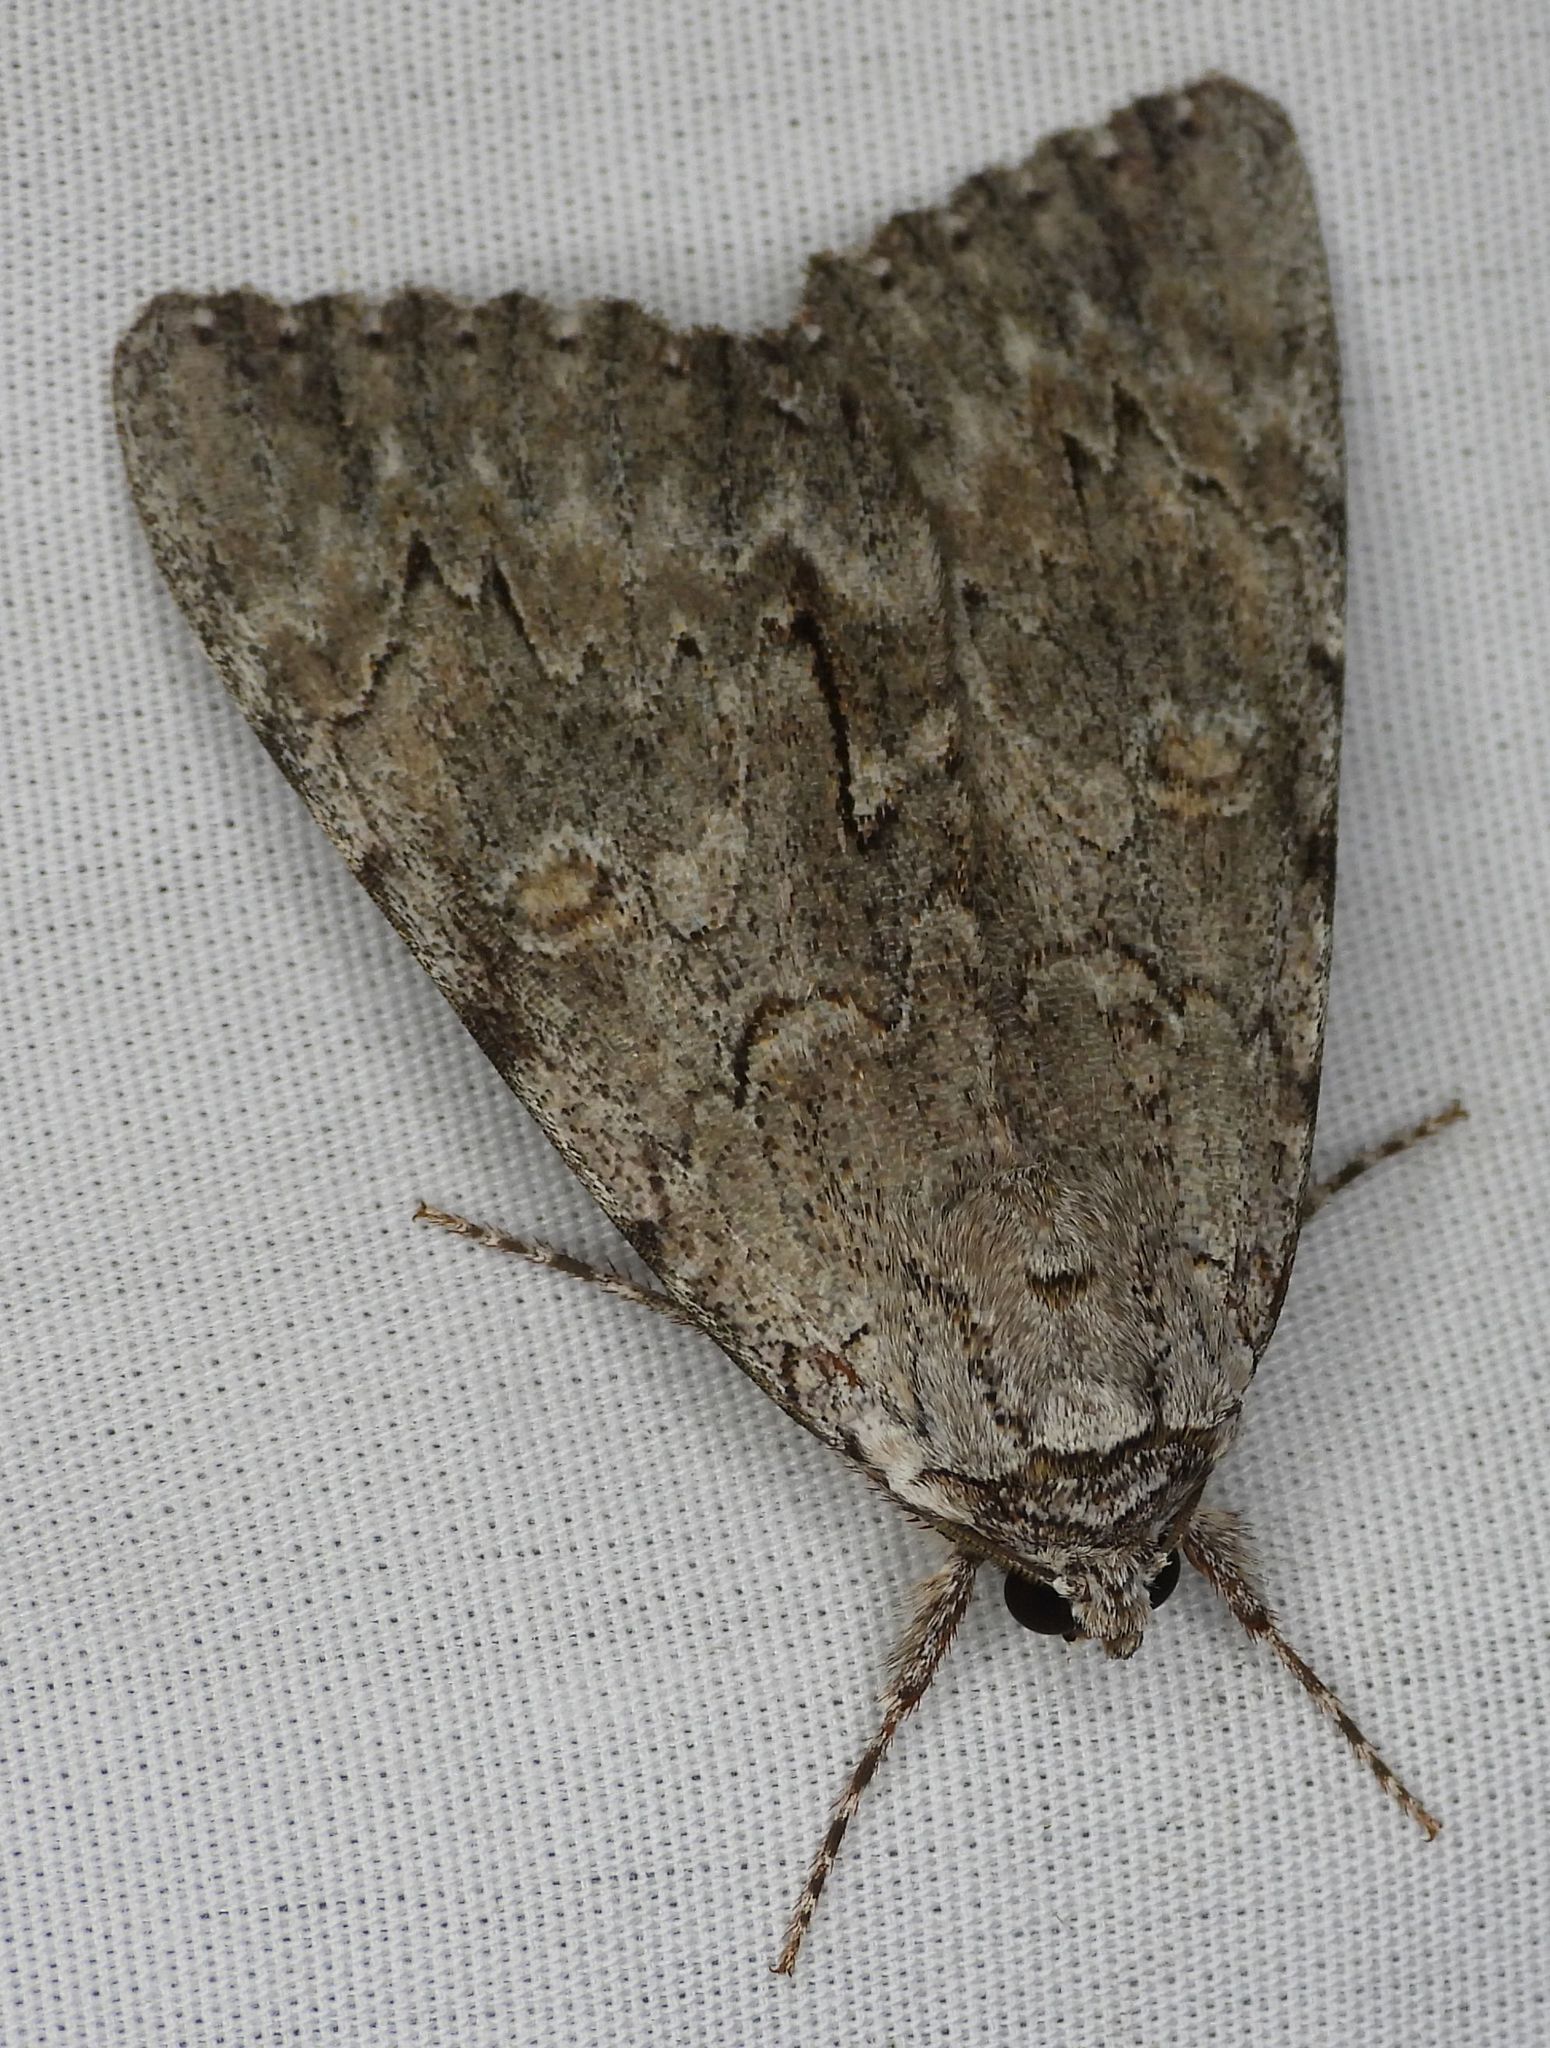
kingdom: Animalia
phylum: Arthropoda
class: Insecta
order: Lepidoptera
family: Erebidae
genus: Catocala
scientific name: Catocala habilis
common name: Habilis underwing
